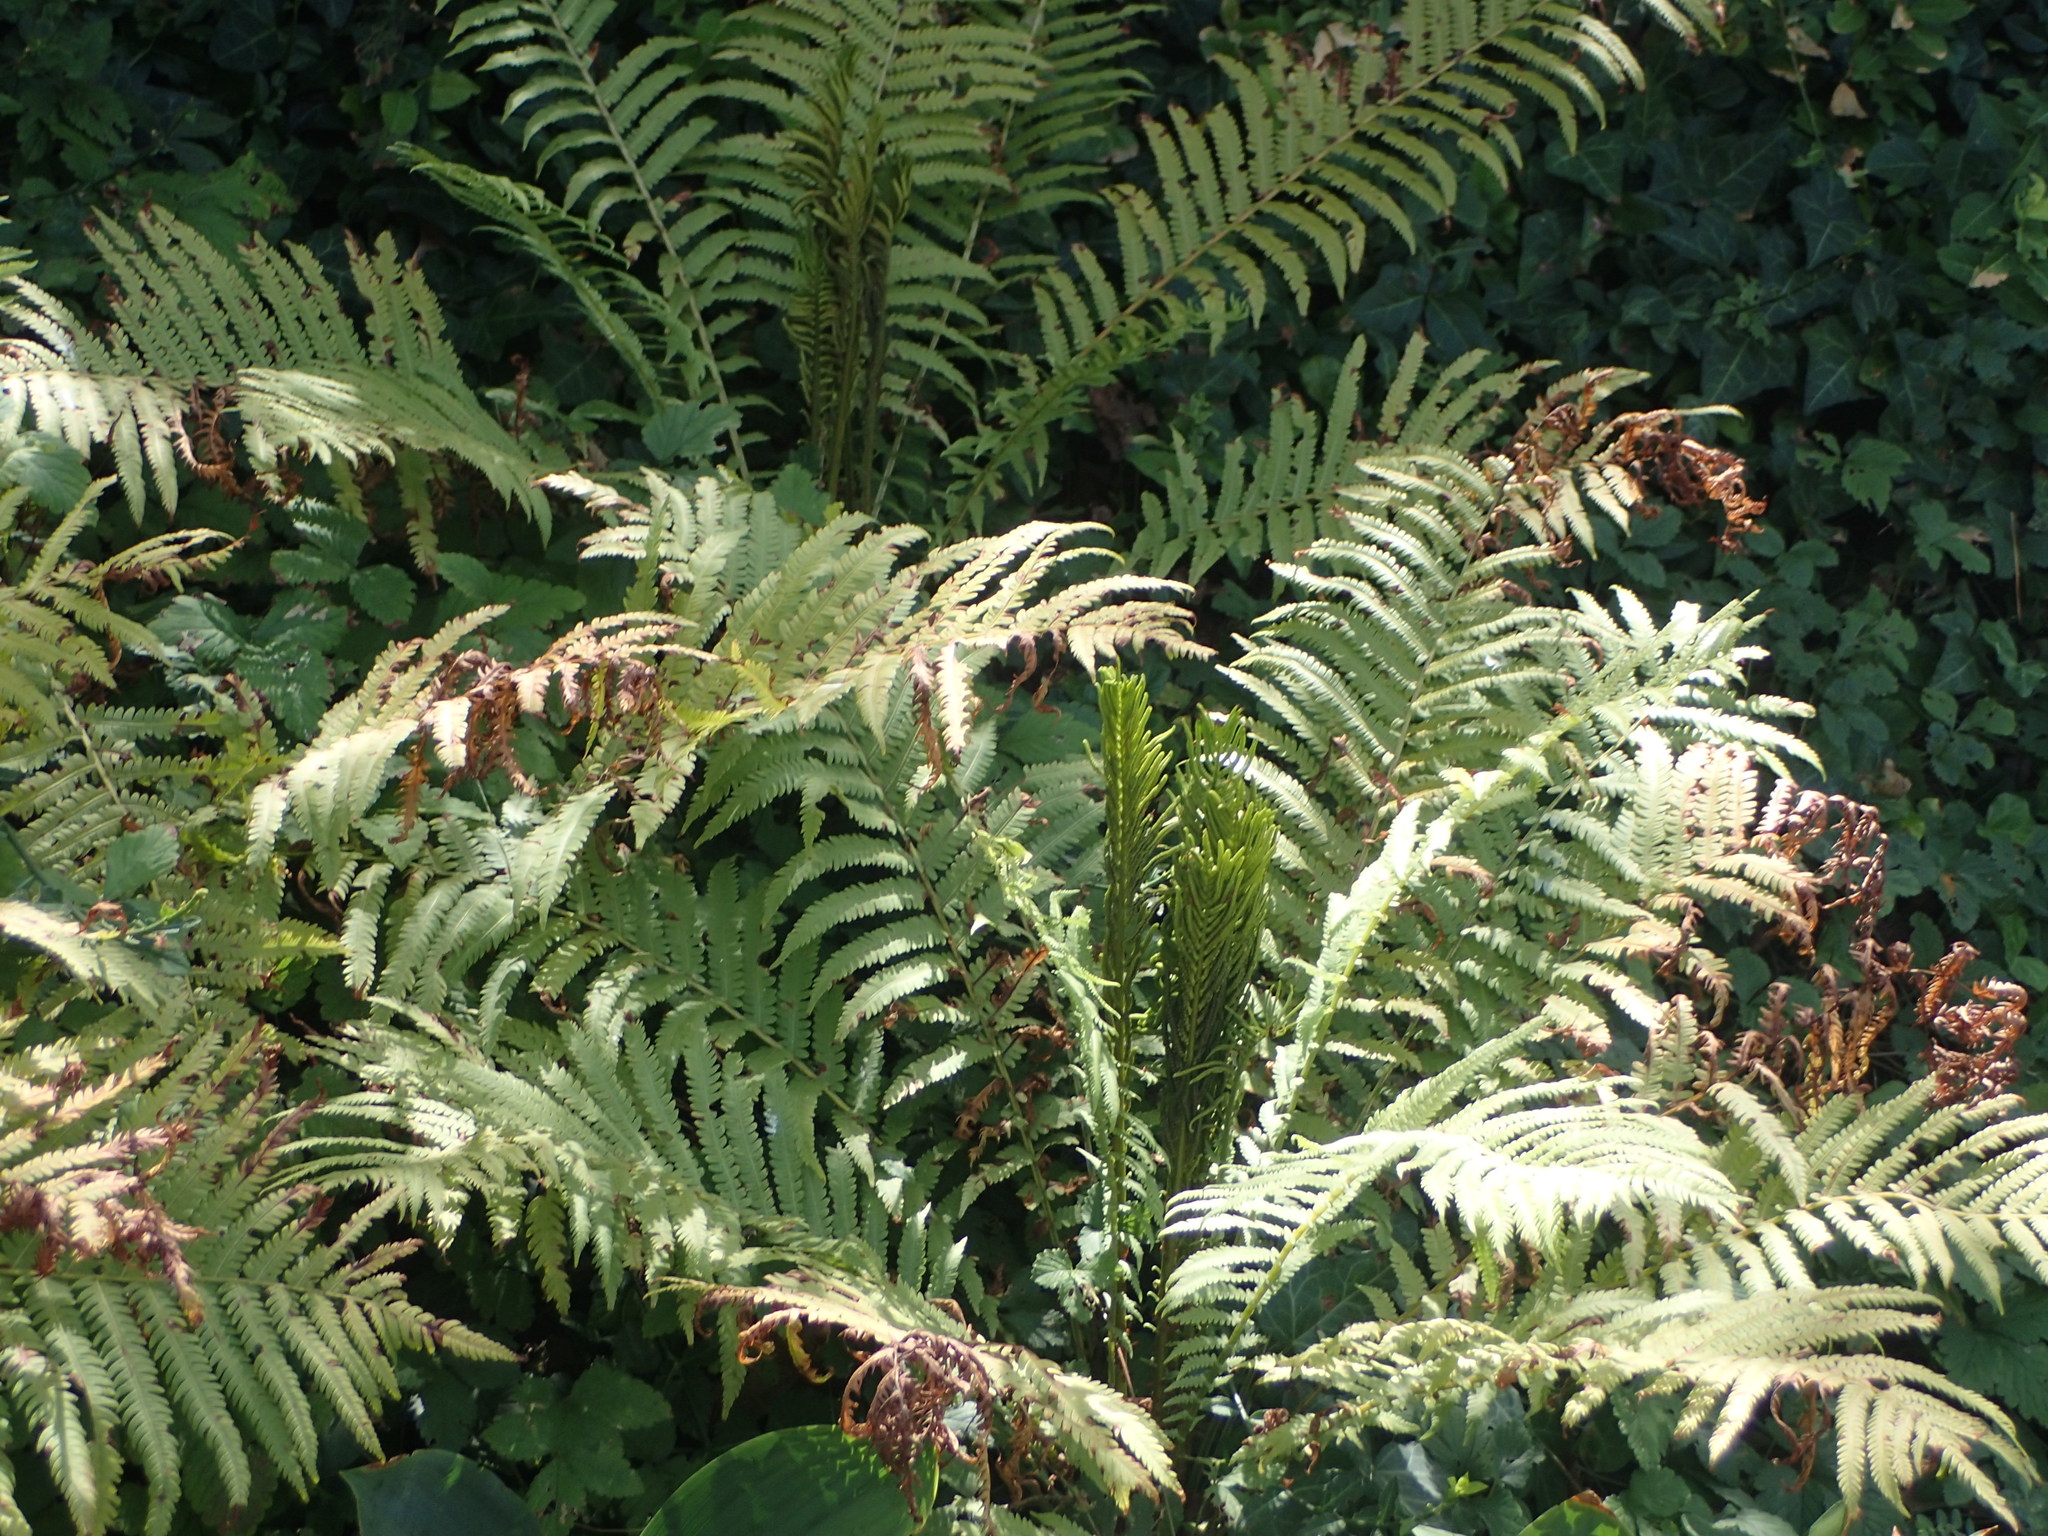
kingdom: Plantae
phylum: Tracheophyta
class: Polypodiopsida
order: Polypodiales
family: Onocleaceae
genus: Matteuccia
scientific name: Matteuccia struthiopteris
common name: Ostrich fern
